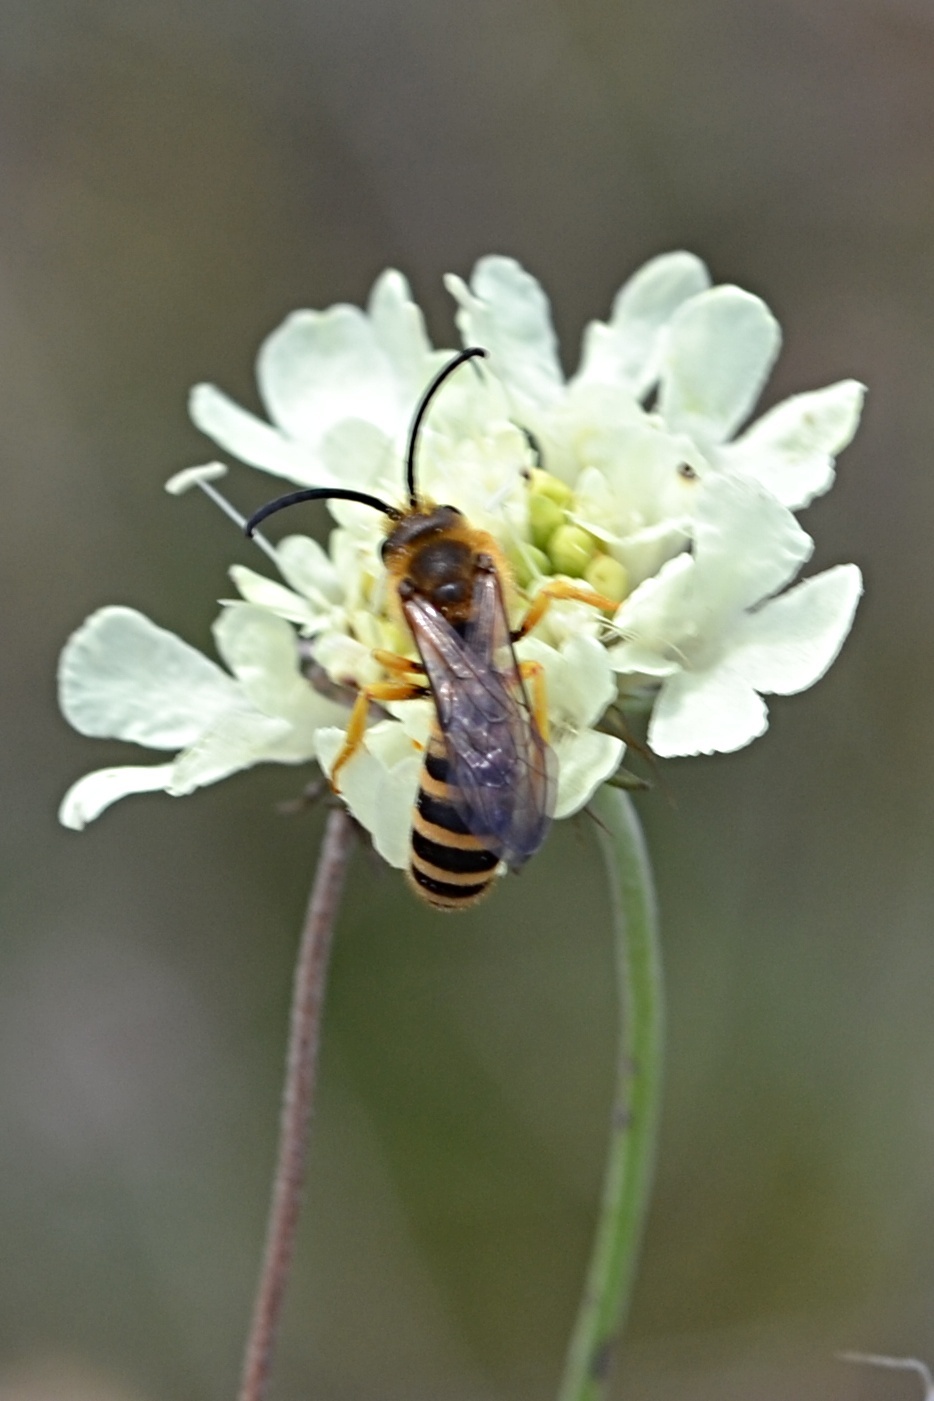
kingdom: Animalia
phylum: Arthropoda
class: Insecta
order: Hymenoptera
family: Halictidae
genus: Halictus
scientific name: Halictus scabiosae
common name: Great banded furrow bee
